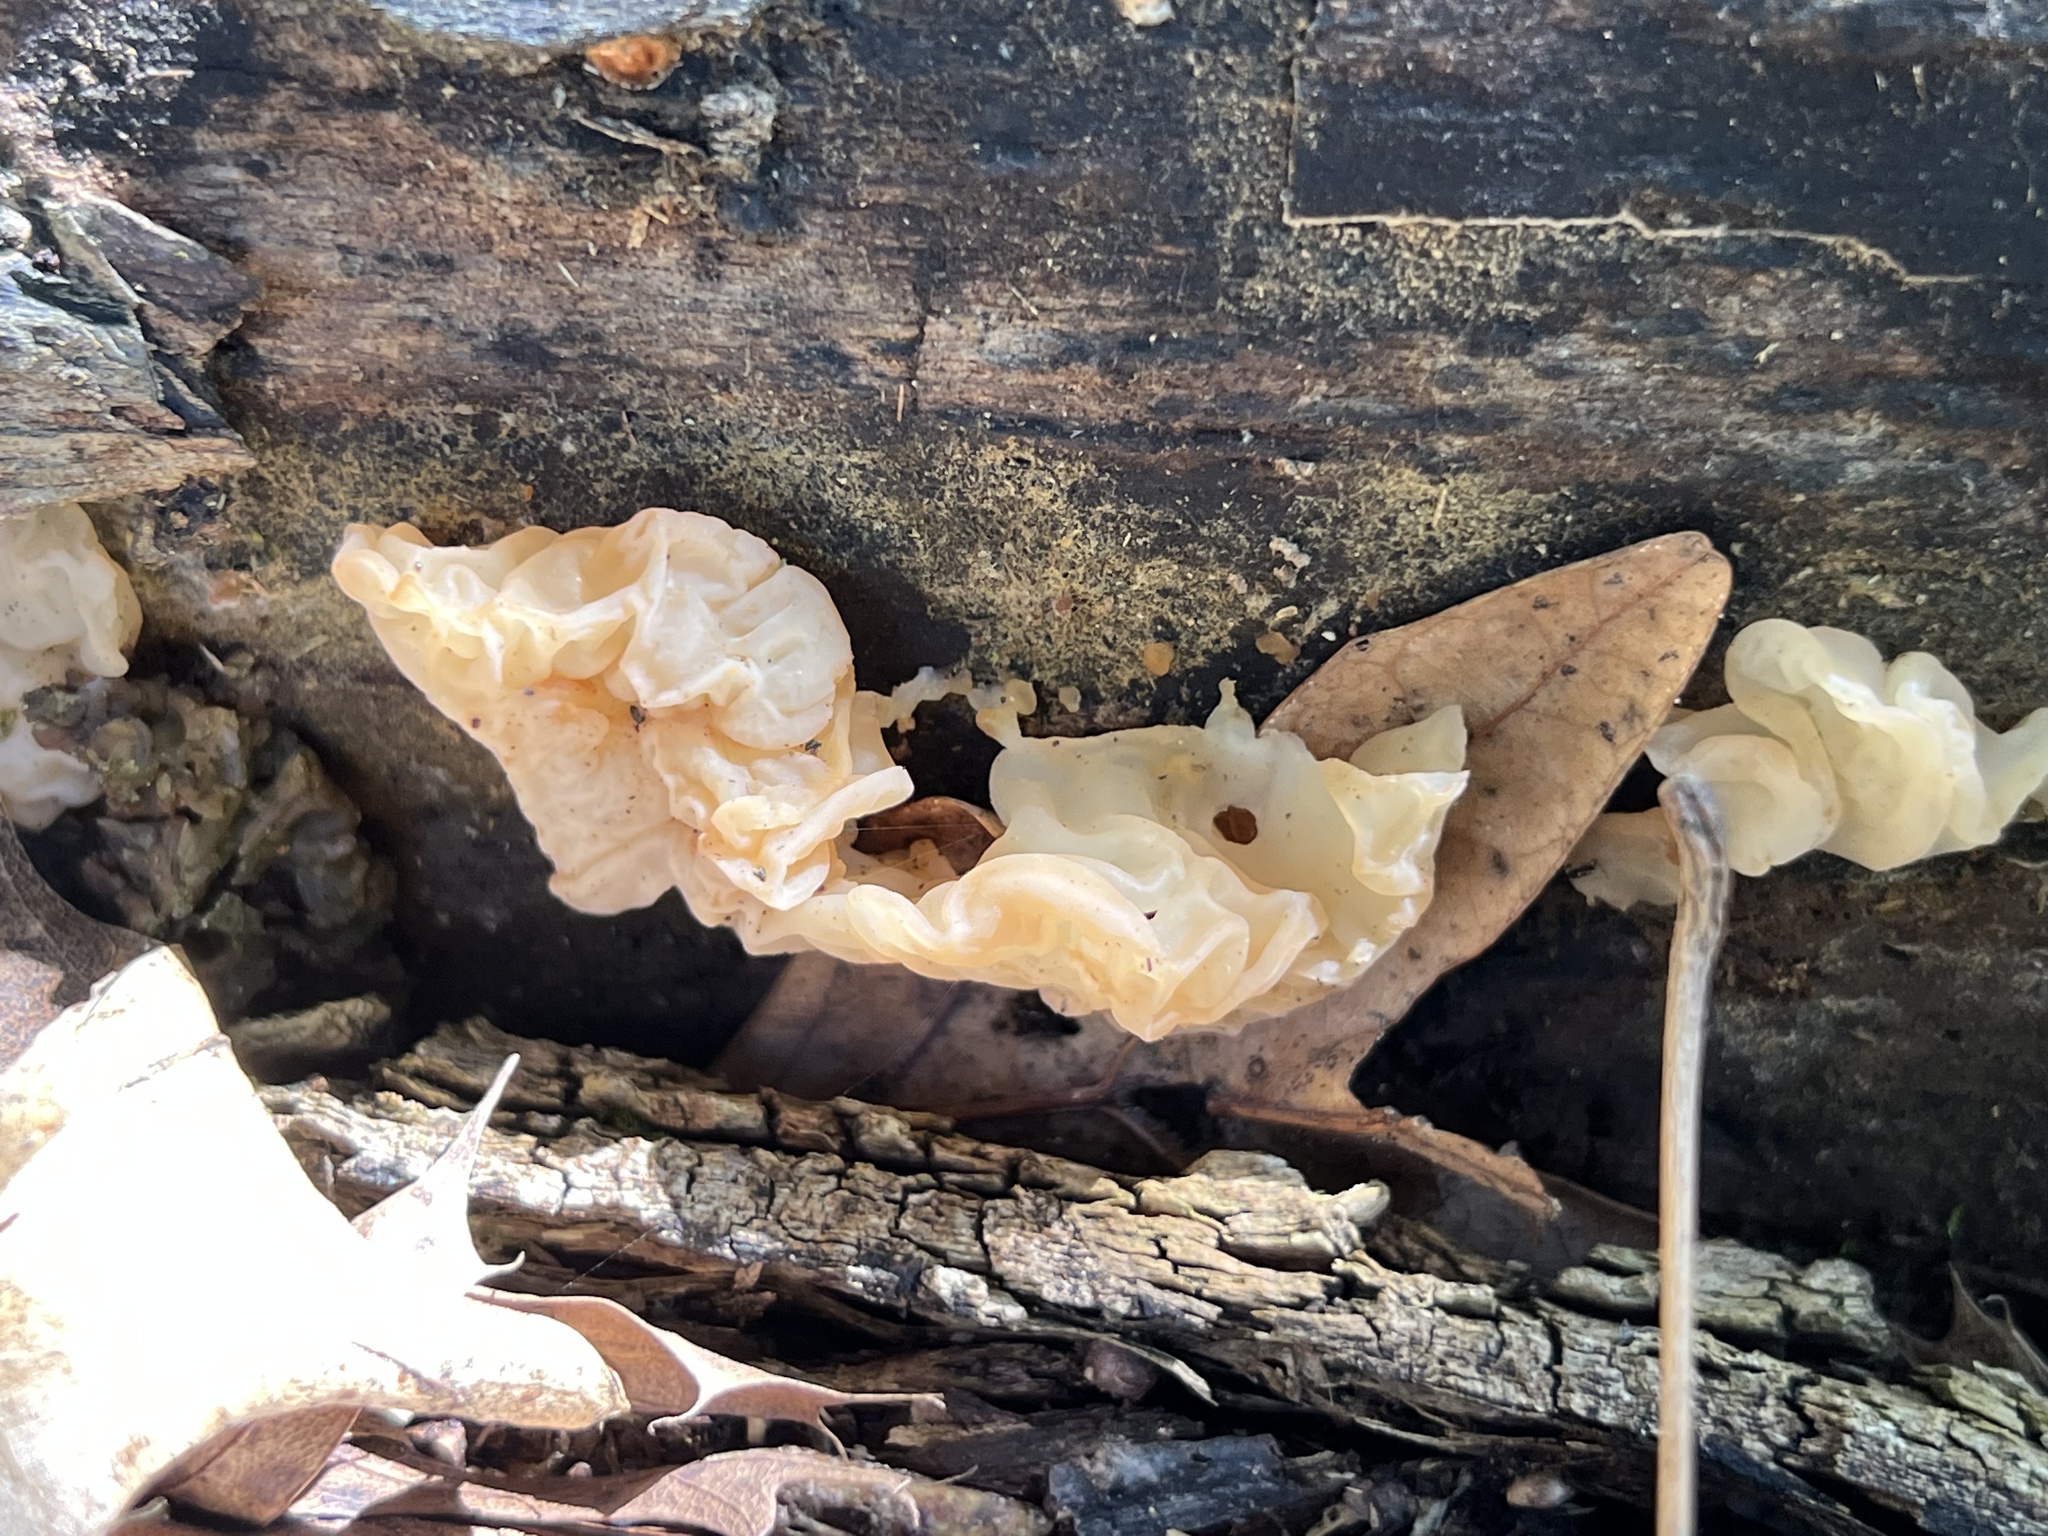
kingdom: Fungi
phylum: Basidiomycota
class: Agaricomycetes
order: Auriculariales
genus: Ductifera
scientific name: Ductifera pululahuana
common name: White jelly fungus
